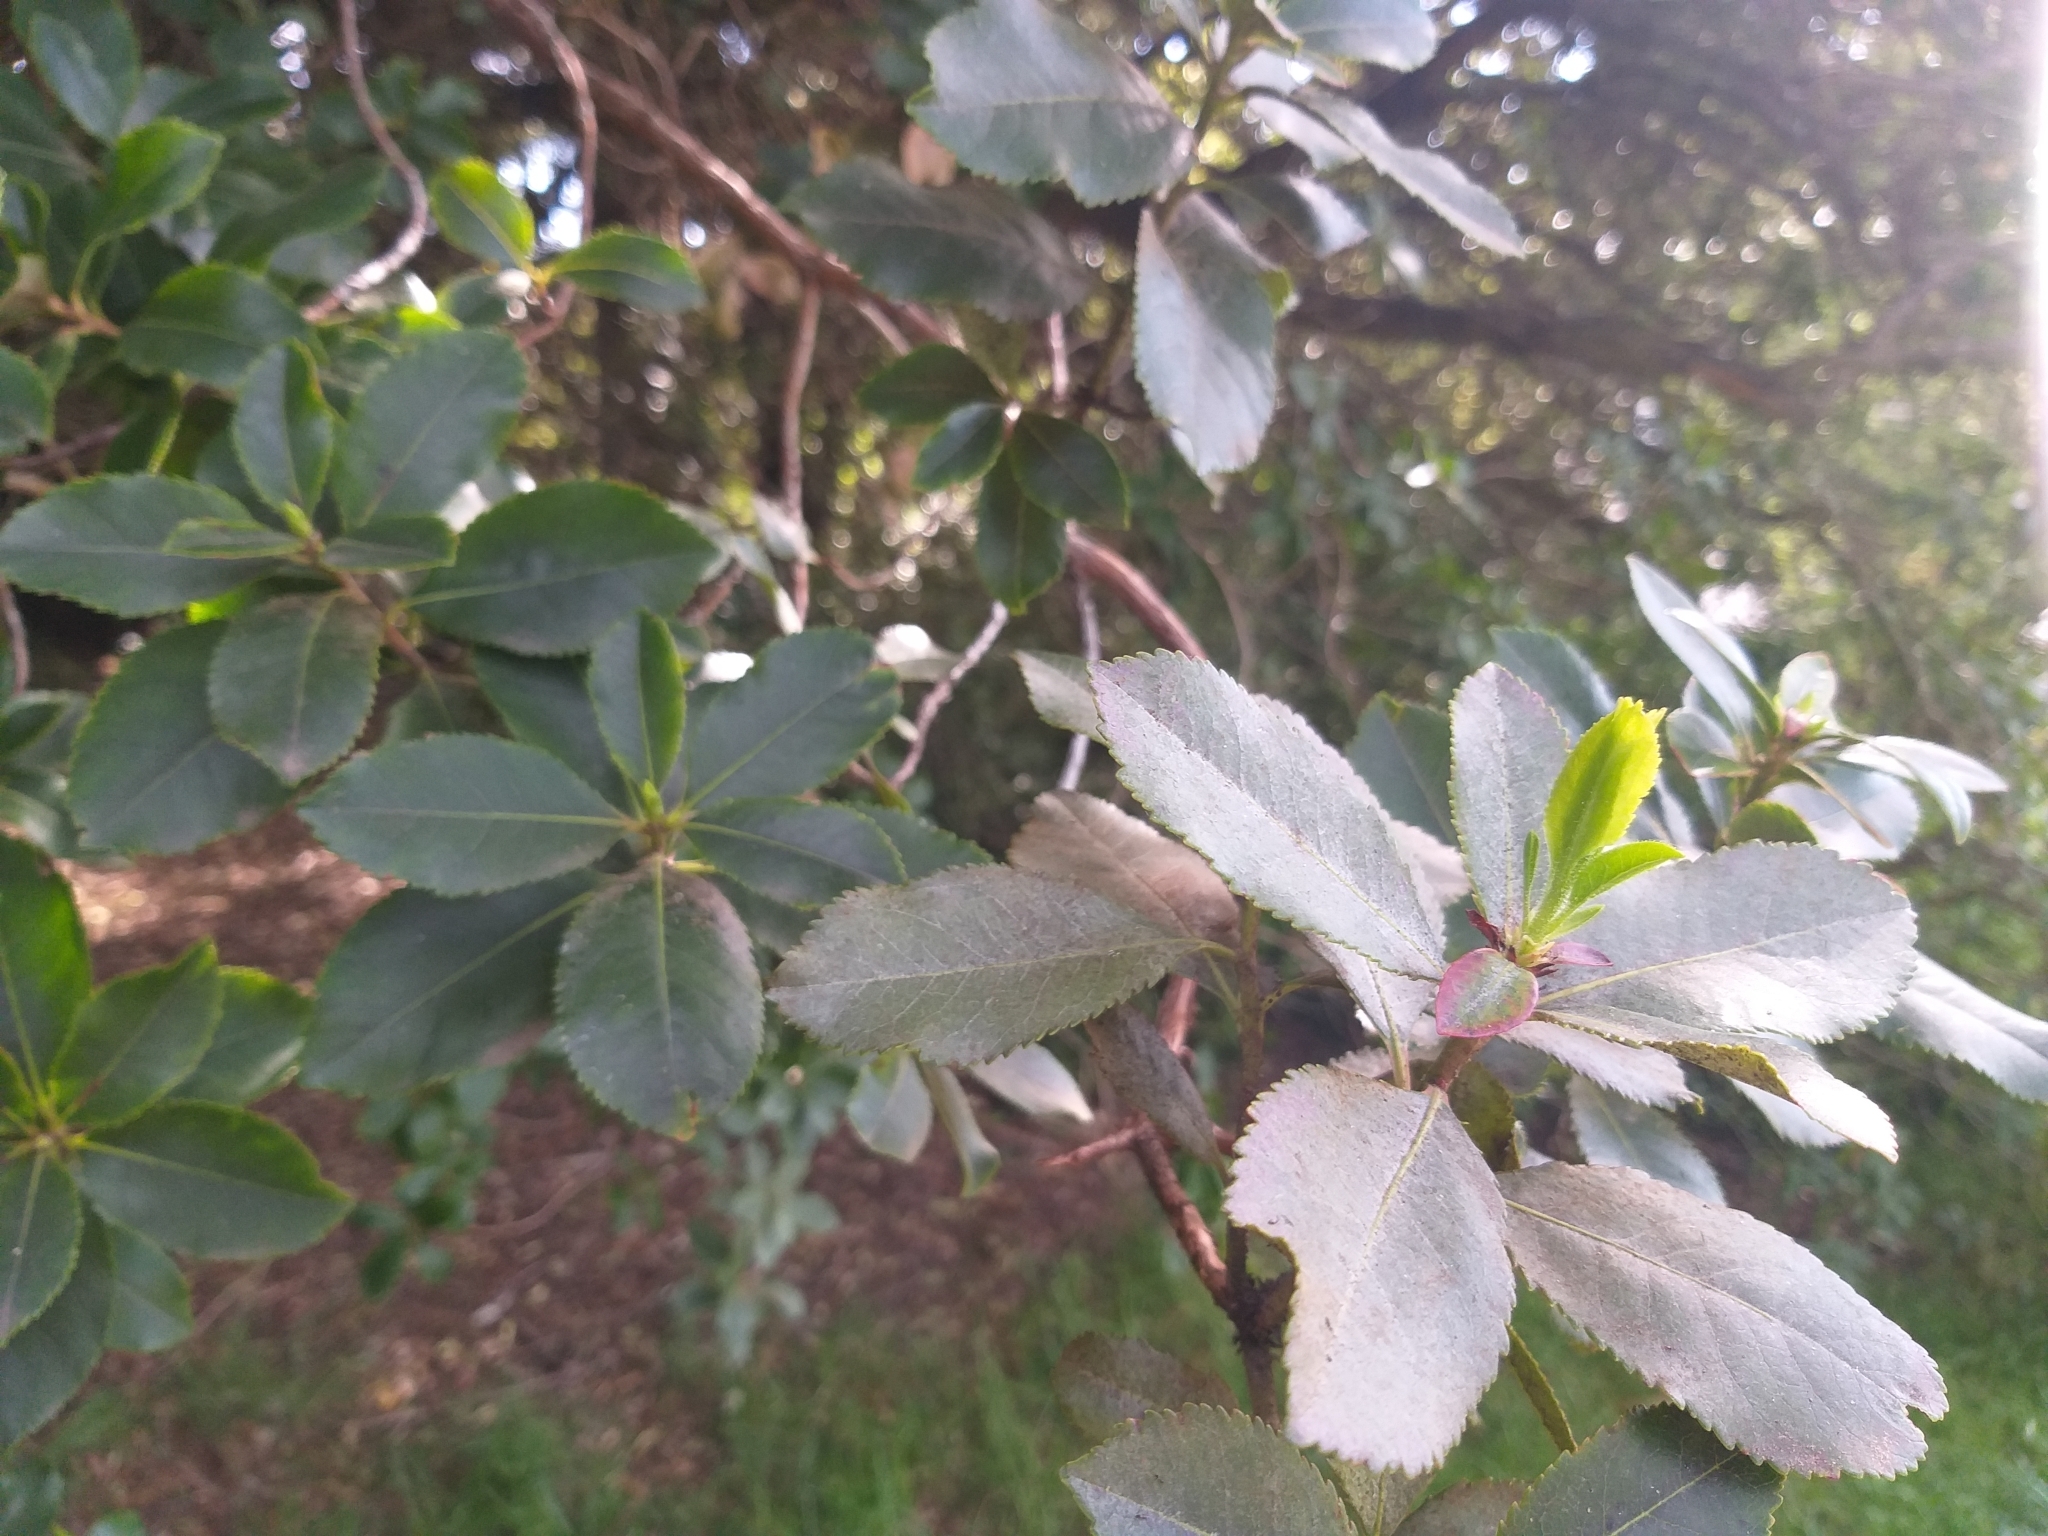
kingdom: Plantae
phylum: Tracheophyta
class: Magnoliopsida
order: Ericales
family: Ericaceae
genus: Arbutus
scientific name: Arbutus unedo
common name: Strawberry-tree
